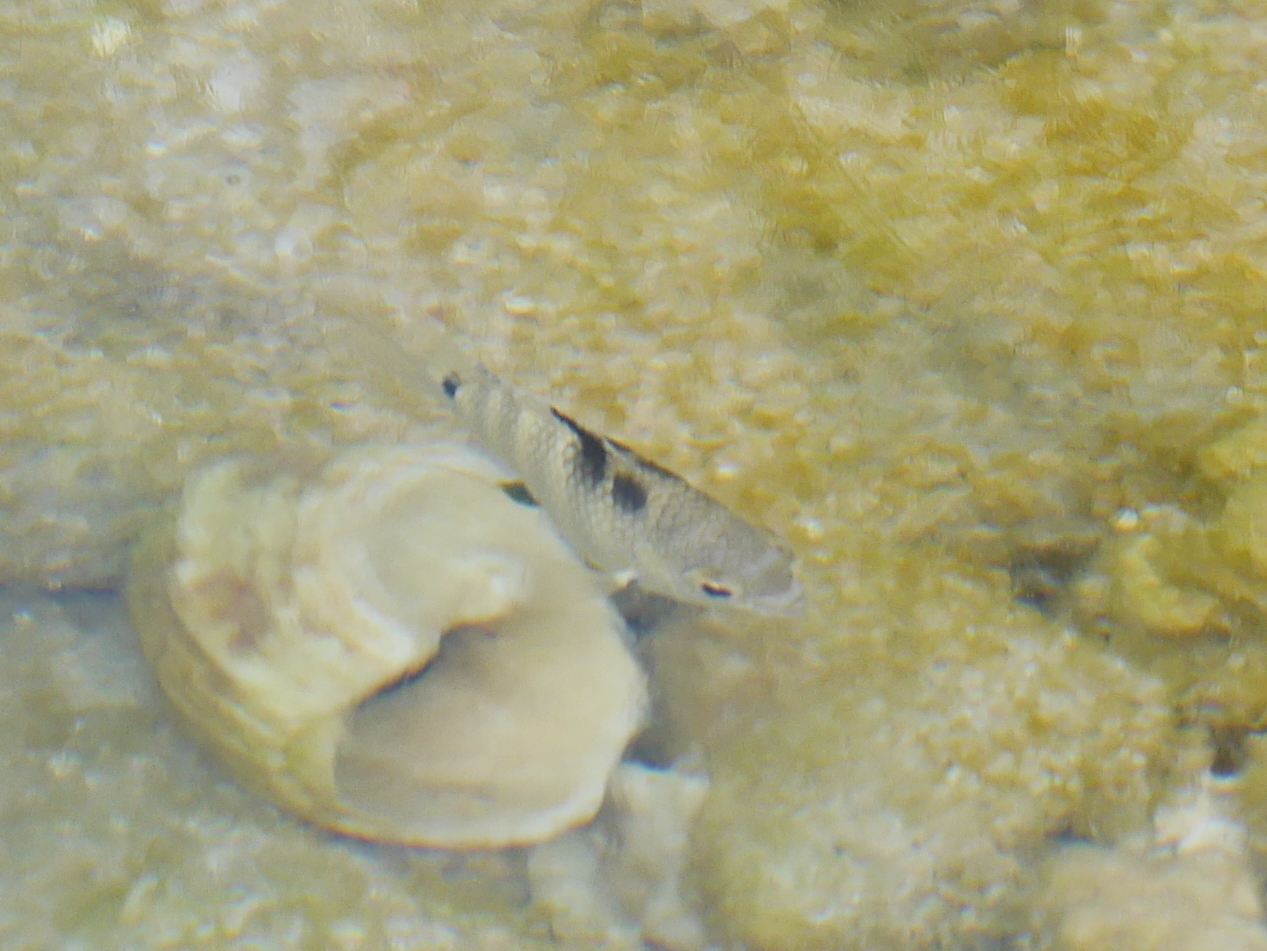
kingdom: Animalia
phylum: Chordata
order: Perciformes
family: Pomacentridae
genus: Abudefduf
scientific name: Abudefduf septemfasciatus
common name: Banded sergeant
